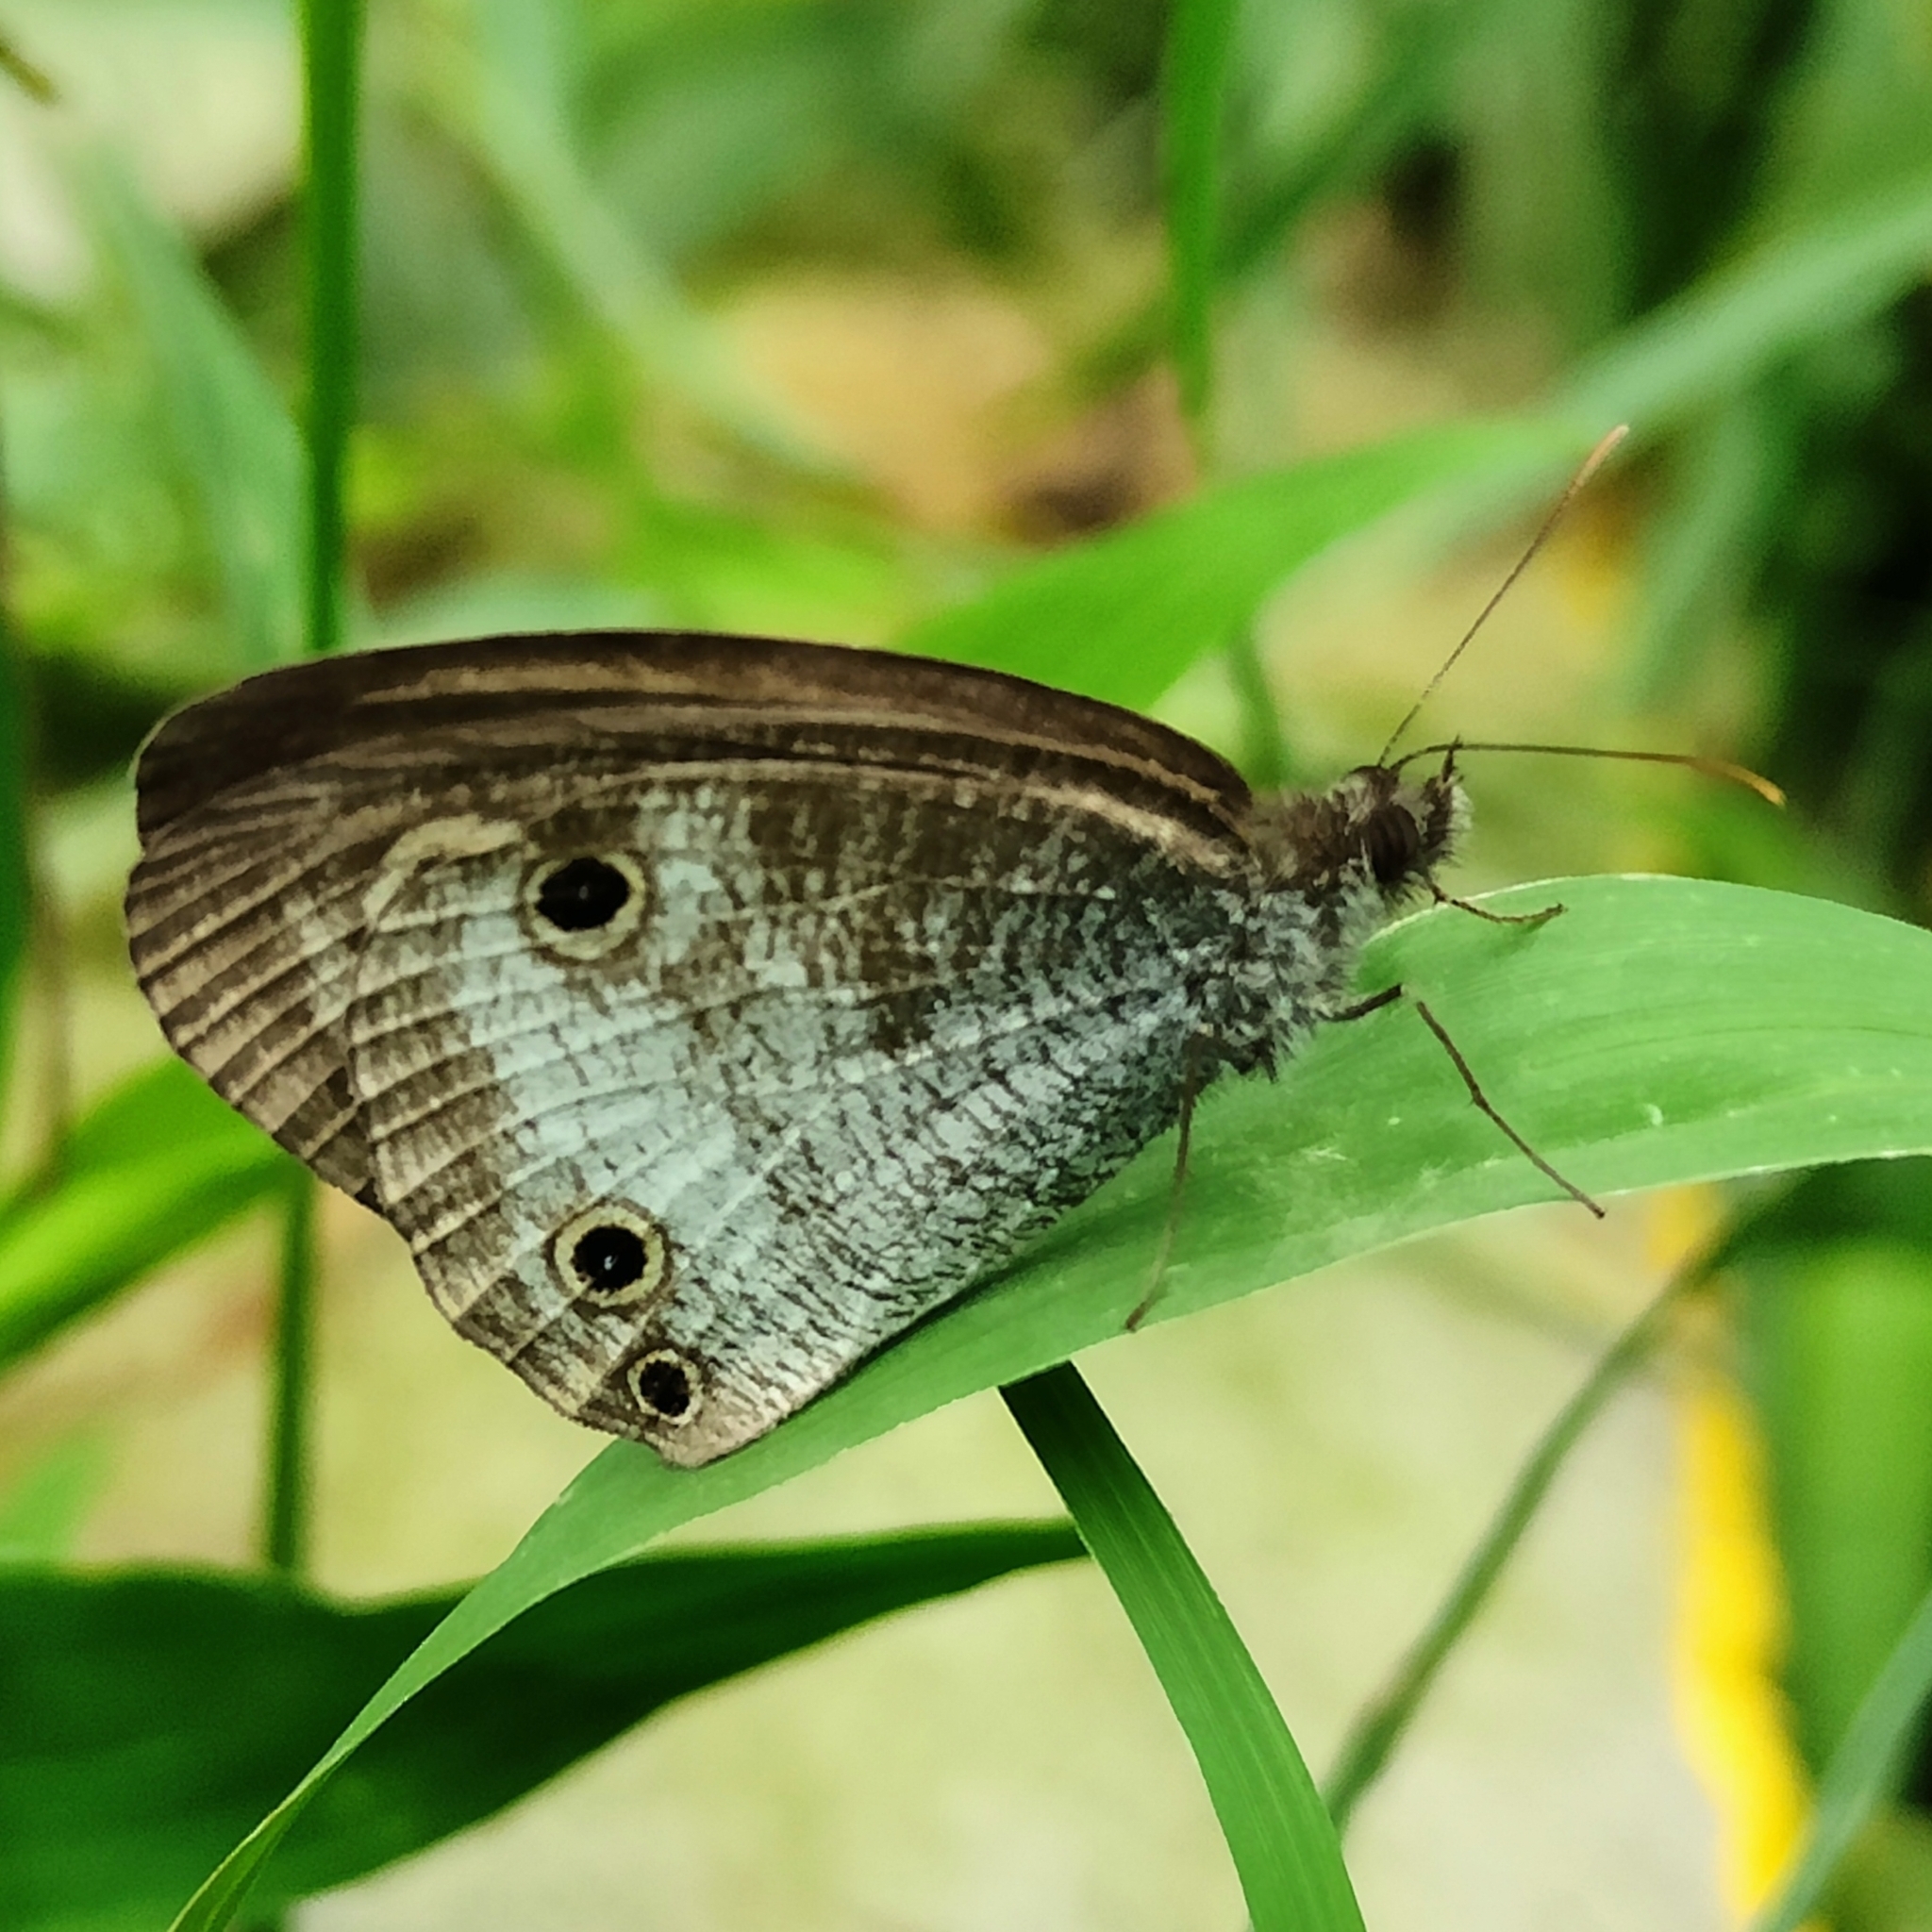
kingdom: Animalia
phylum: Arthropoda
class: Insecta
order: Lepidoptera
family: Nymphalidae
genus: Ypthima
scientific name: Ypthima pandocus
